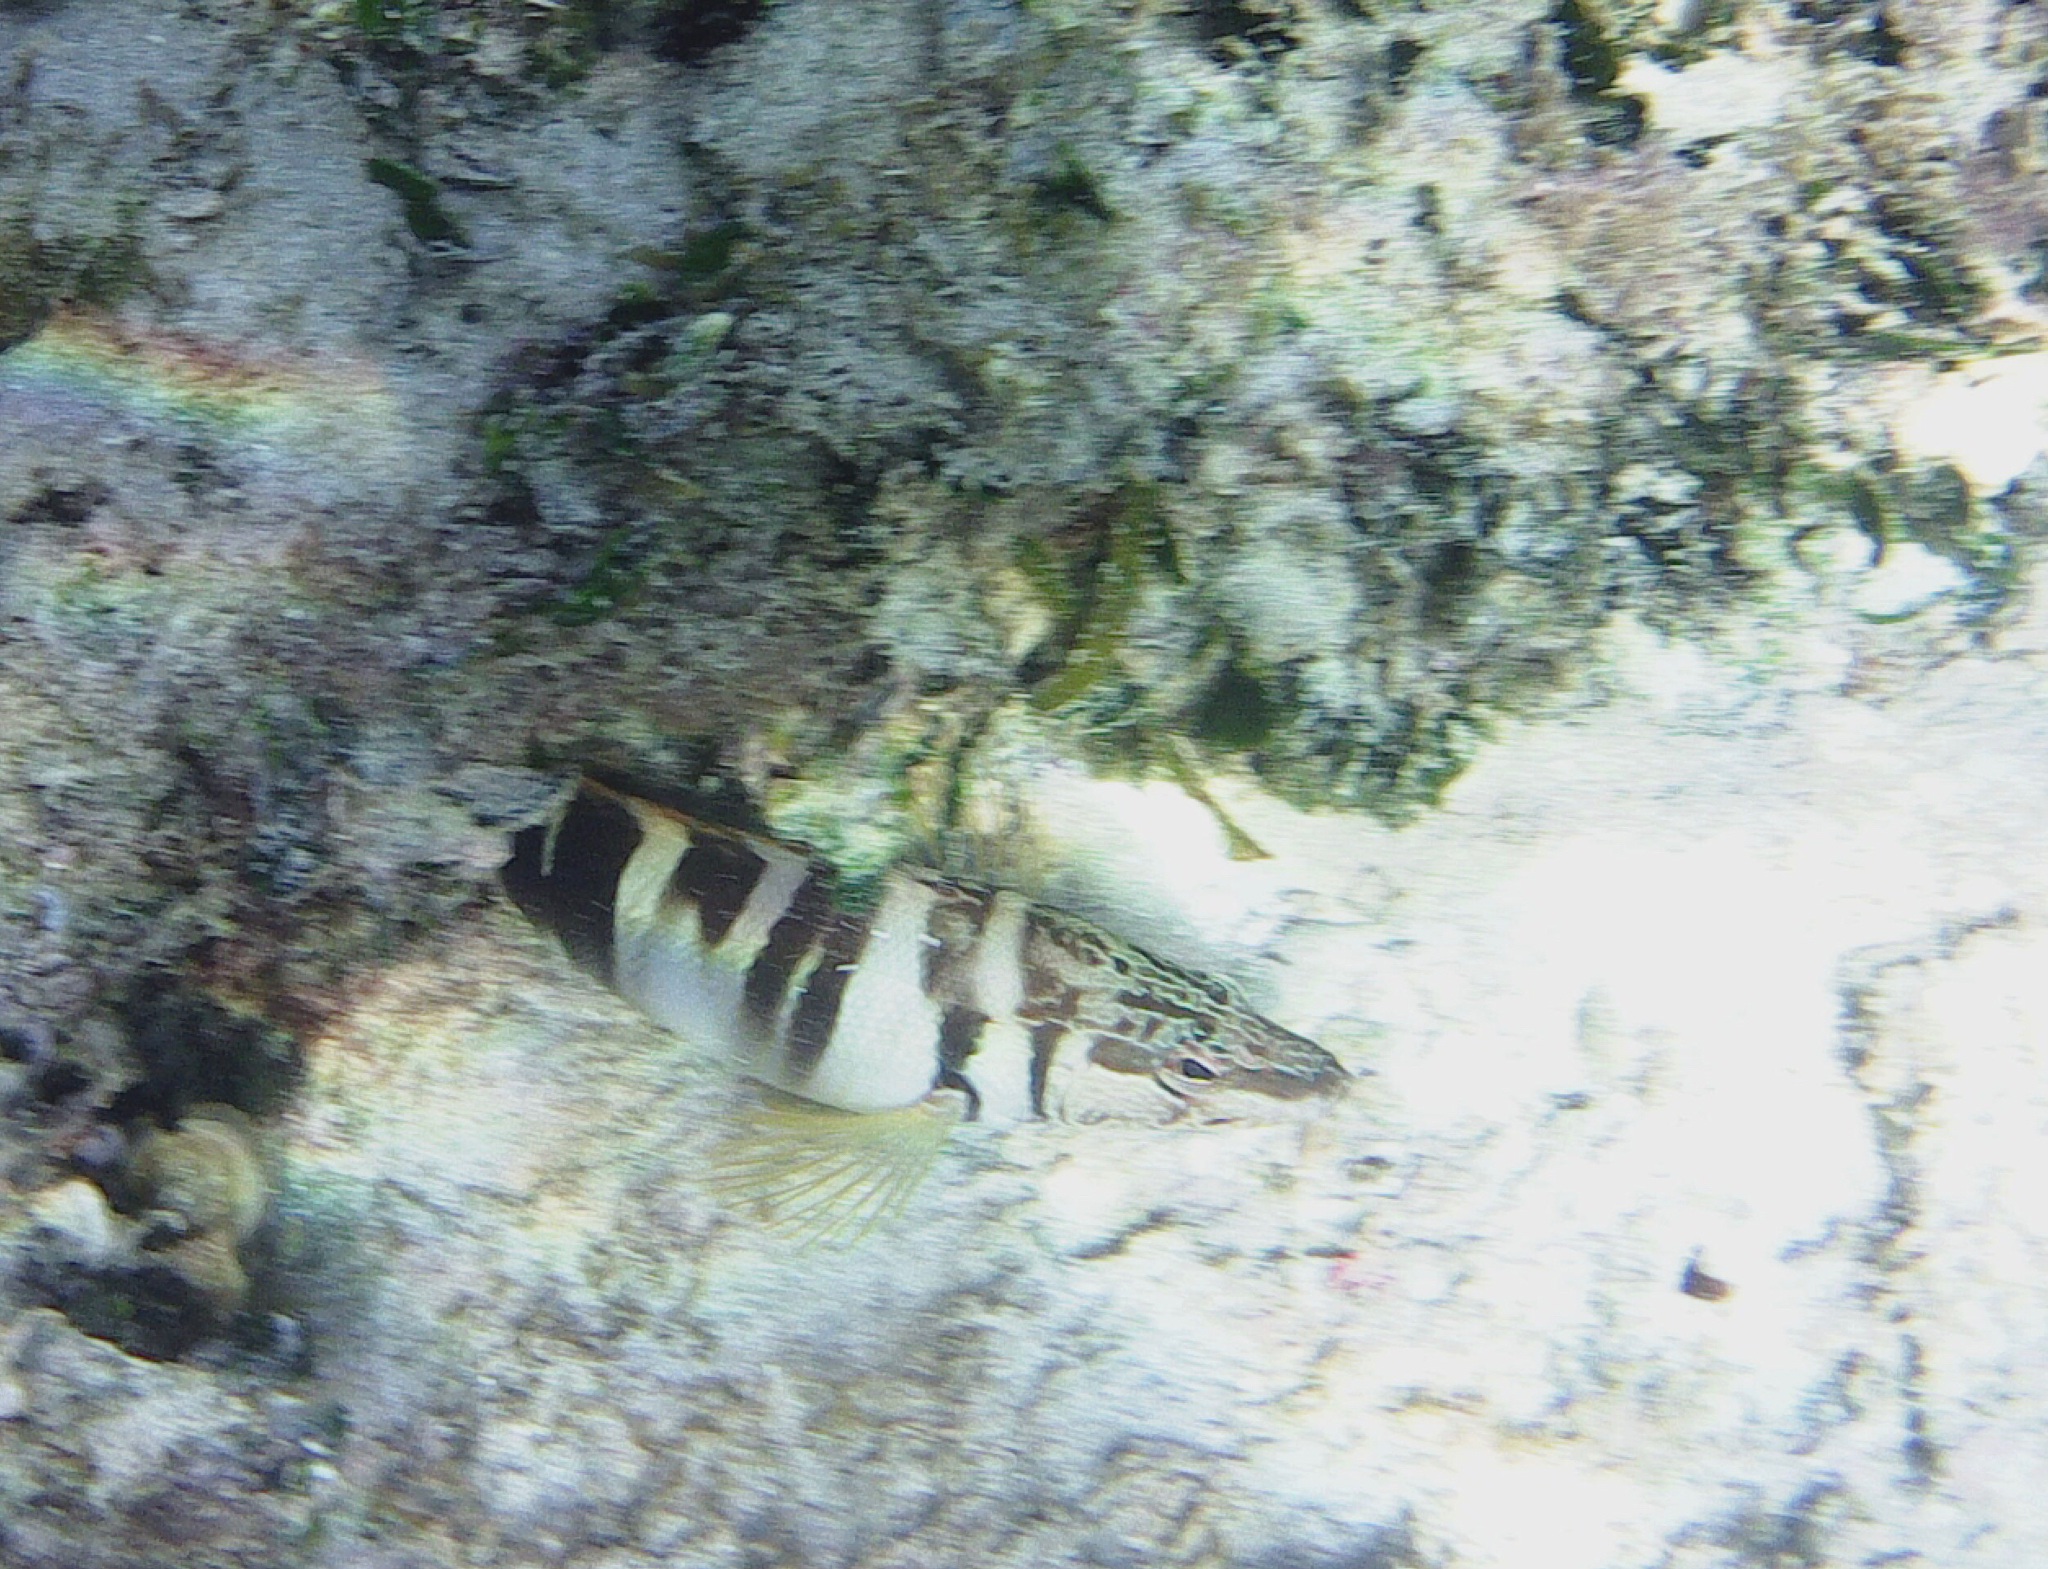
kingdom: Animalia
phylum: Chordata
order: Perciformes
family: Serranidae
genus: Serranus
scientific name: Serranus scriba
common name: Painted comber
